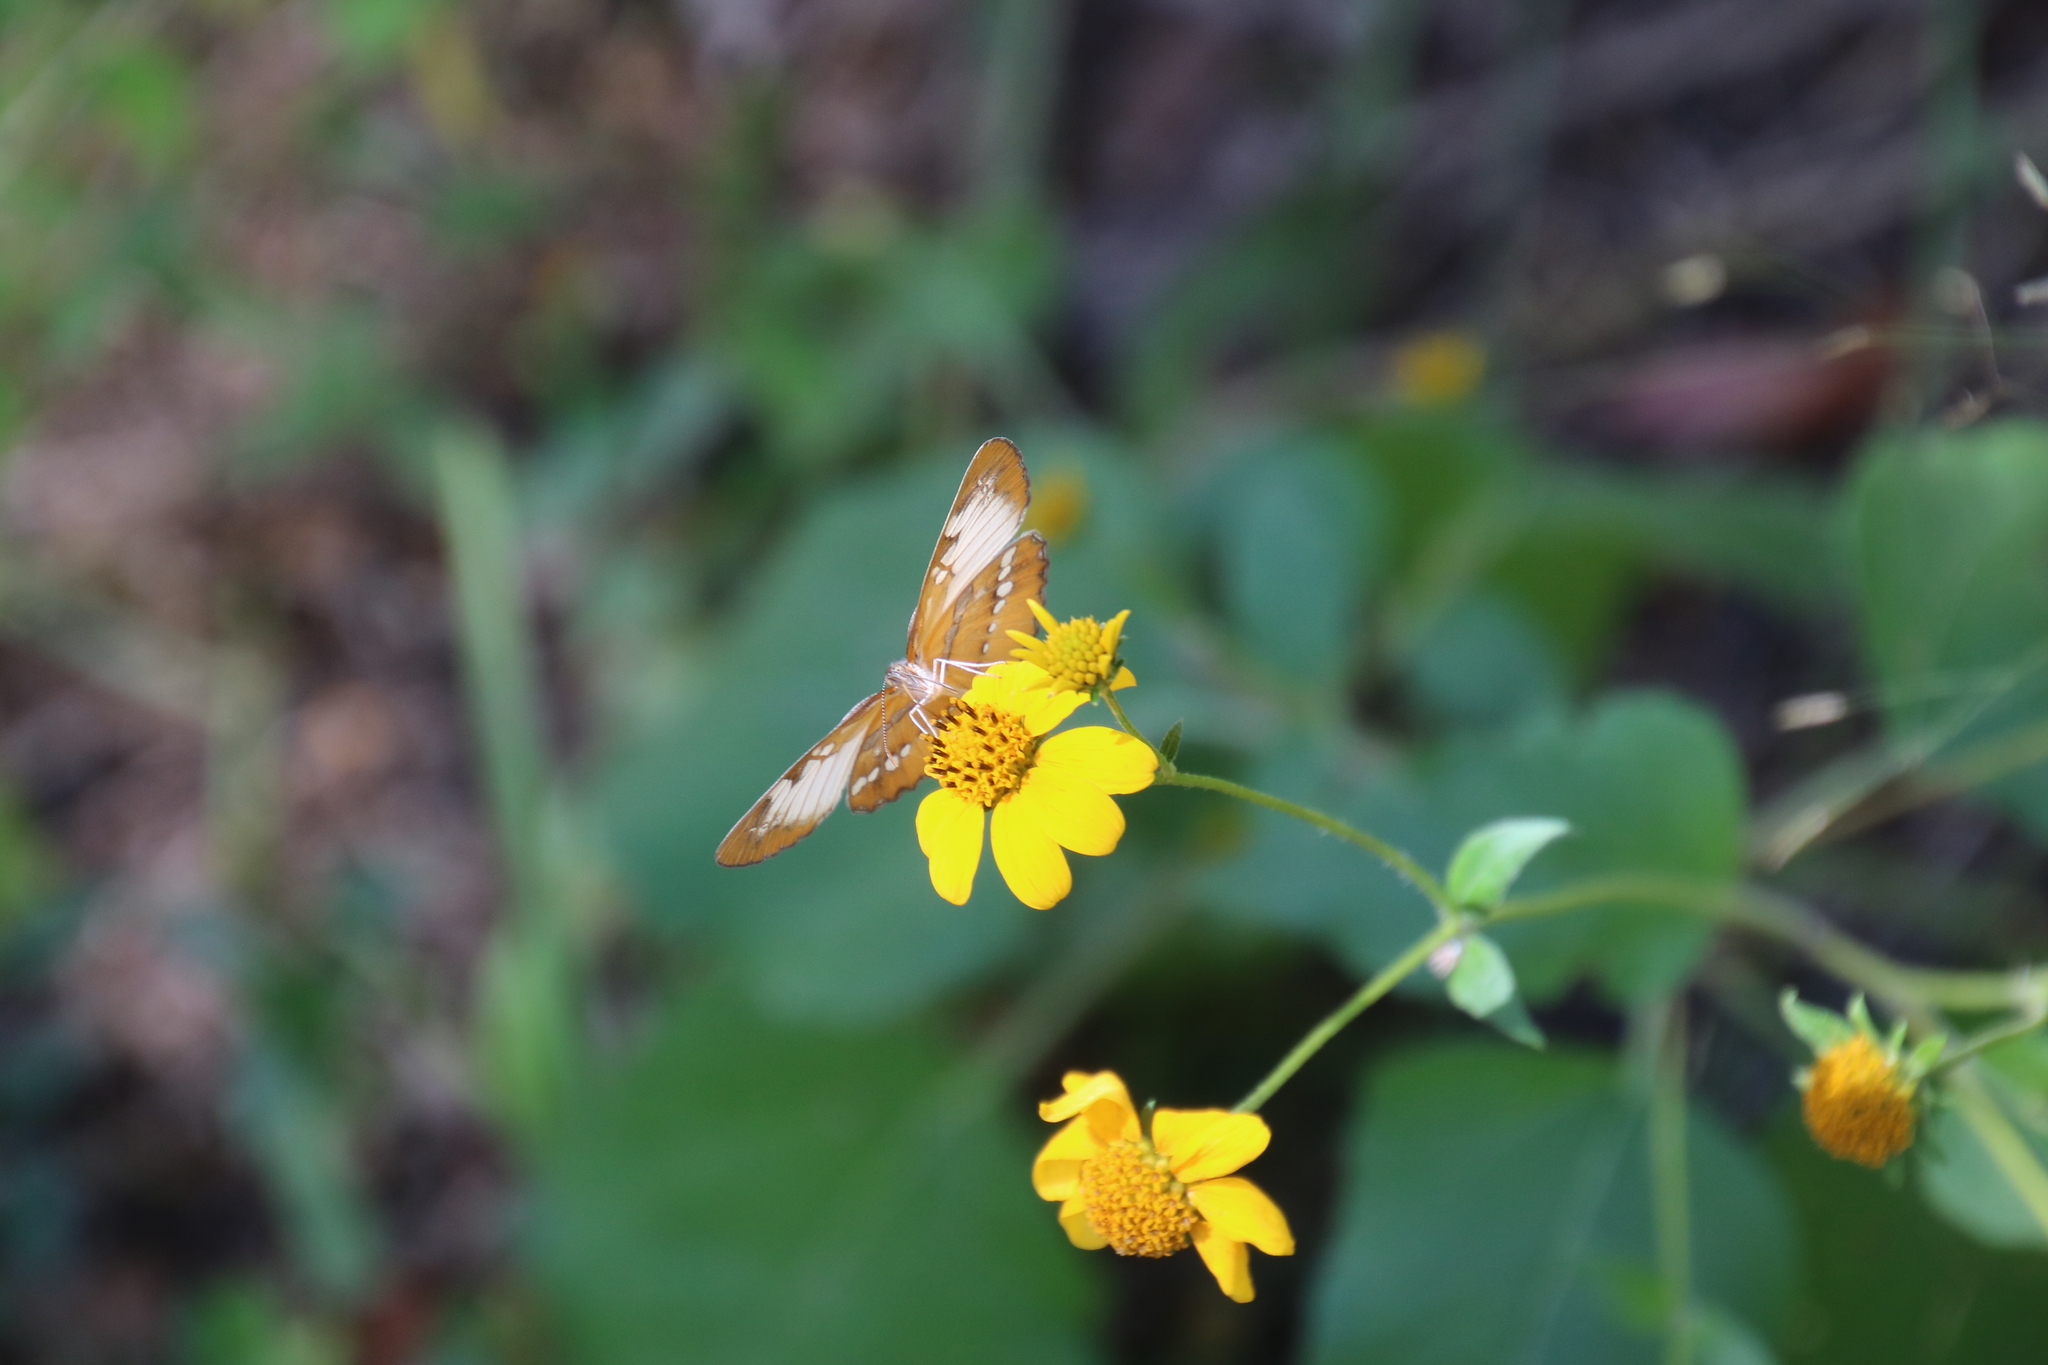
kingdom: Animalia
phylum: Arthropoda
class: Insecta
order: Lepidoptera
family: Nymphalidae
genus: Mestra
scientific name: Mestra amymone
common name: Common mestra
